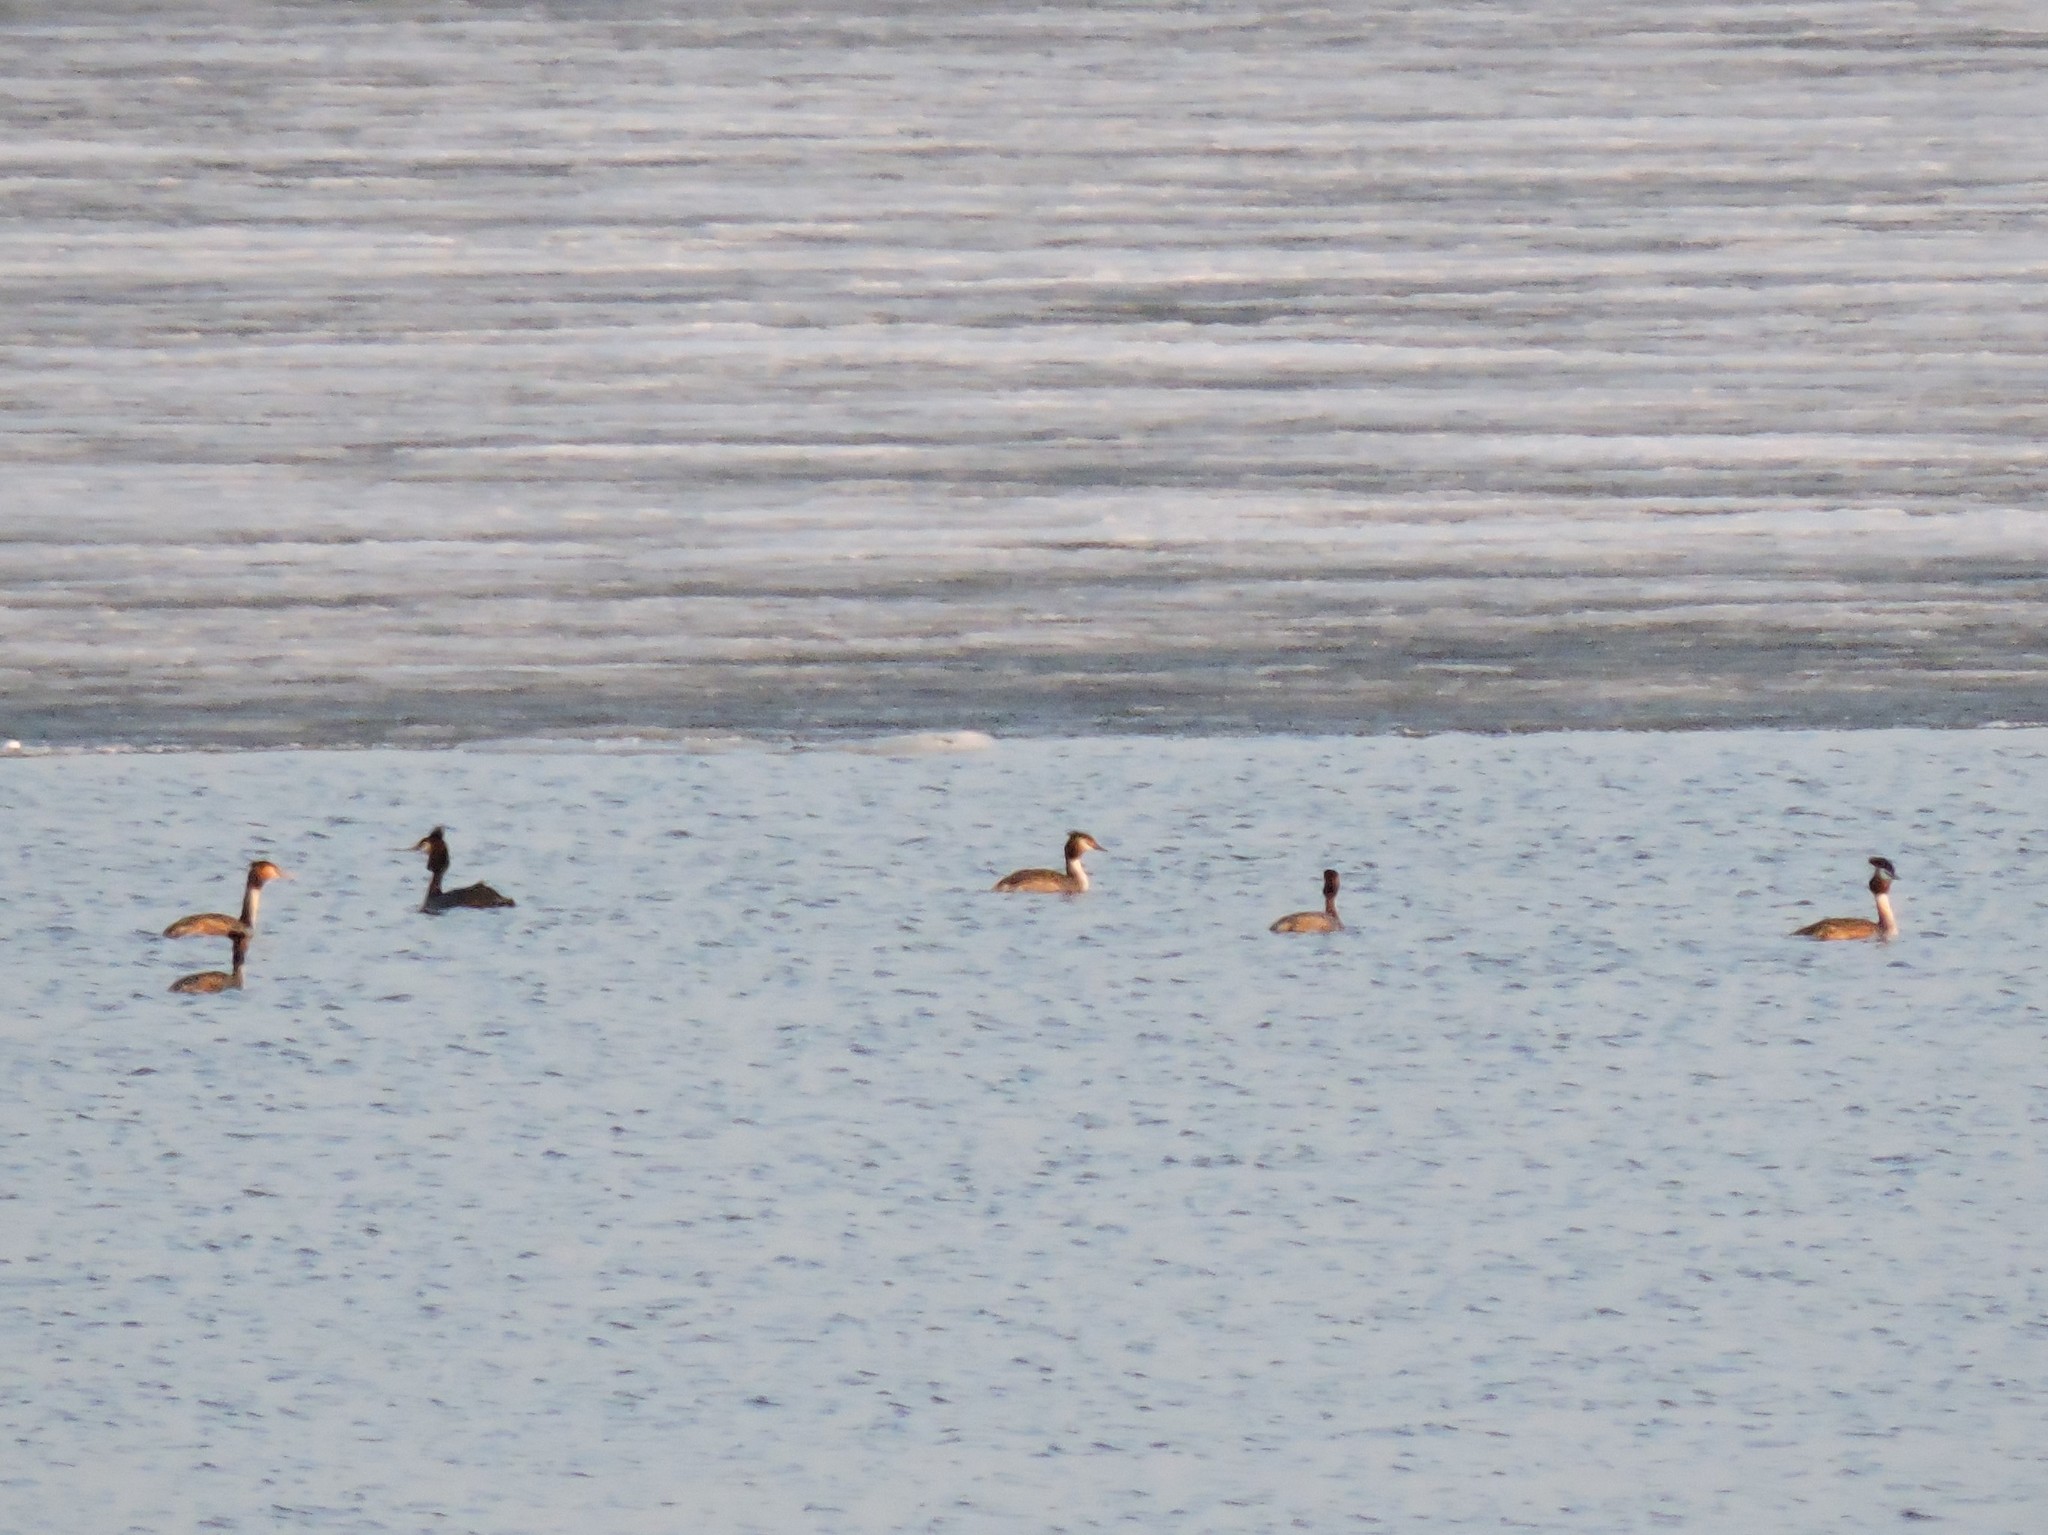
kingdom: Animalia
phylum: Chordata
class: Aves
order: Podicipediformes
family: Podicipedidae
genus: Podiceps
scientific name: Podiceps cristatus
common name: Great crested grebe
